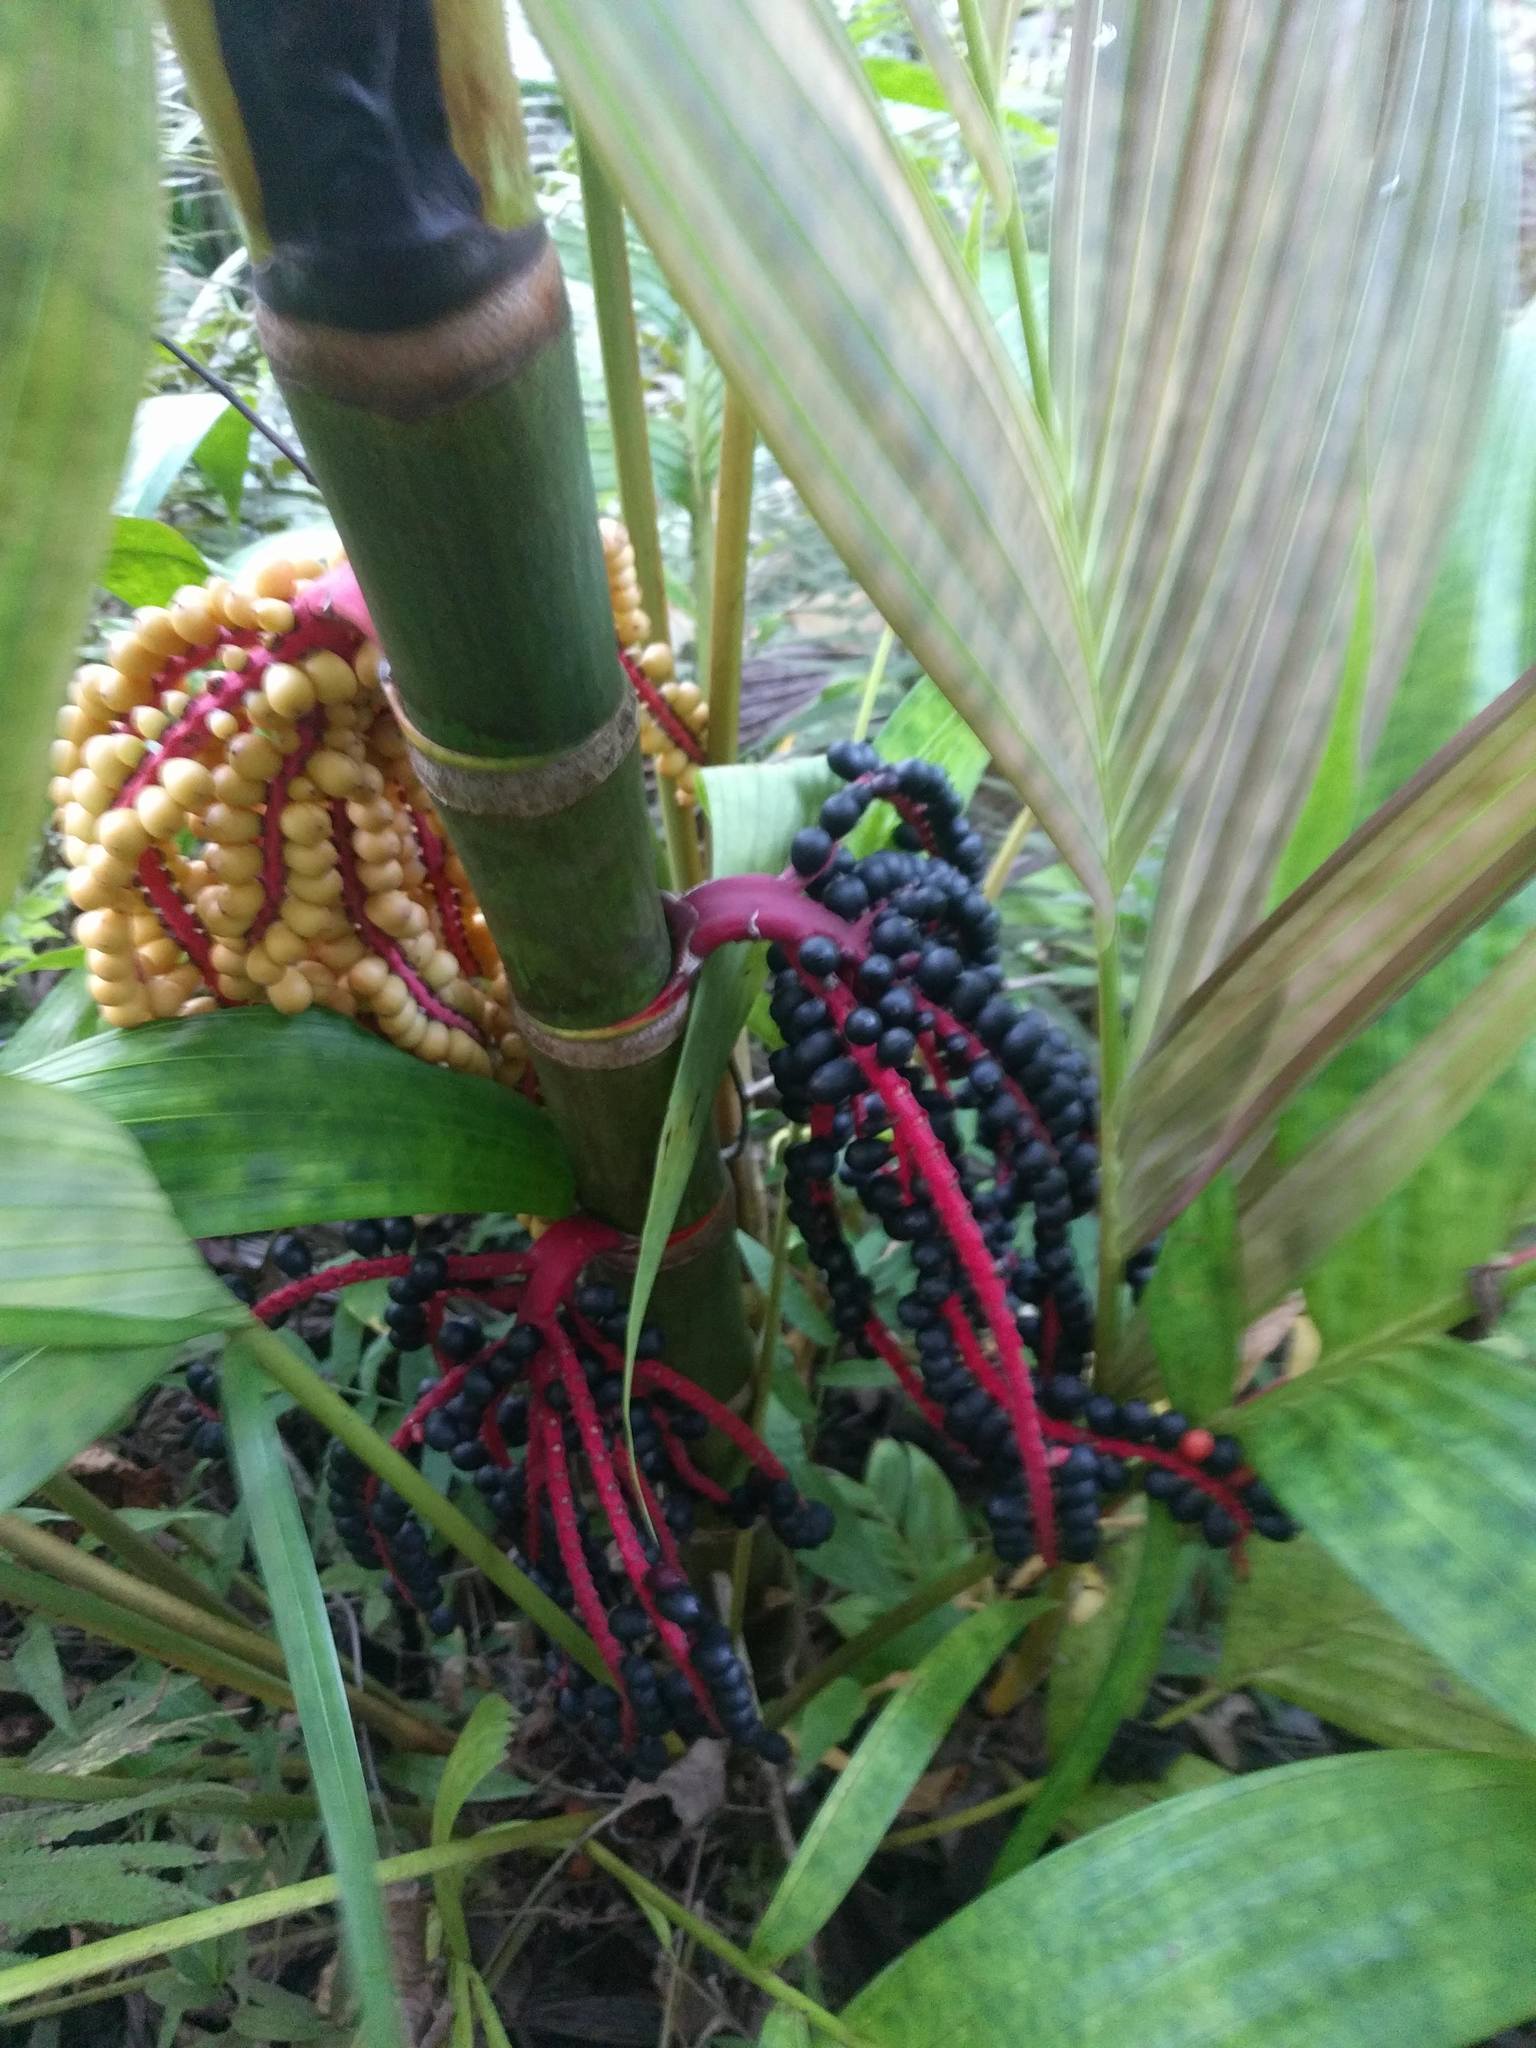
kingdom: Plantae
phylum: Tracheophyta
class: Liliopsida
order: Arecales
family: Arecaceae
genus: Pinanga
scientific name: Pinanga coronata
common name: Ivory cane palm
